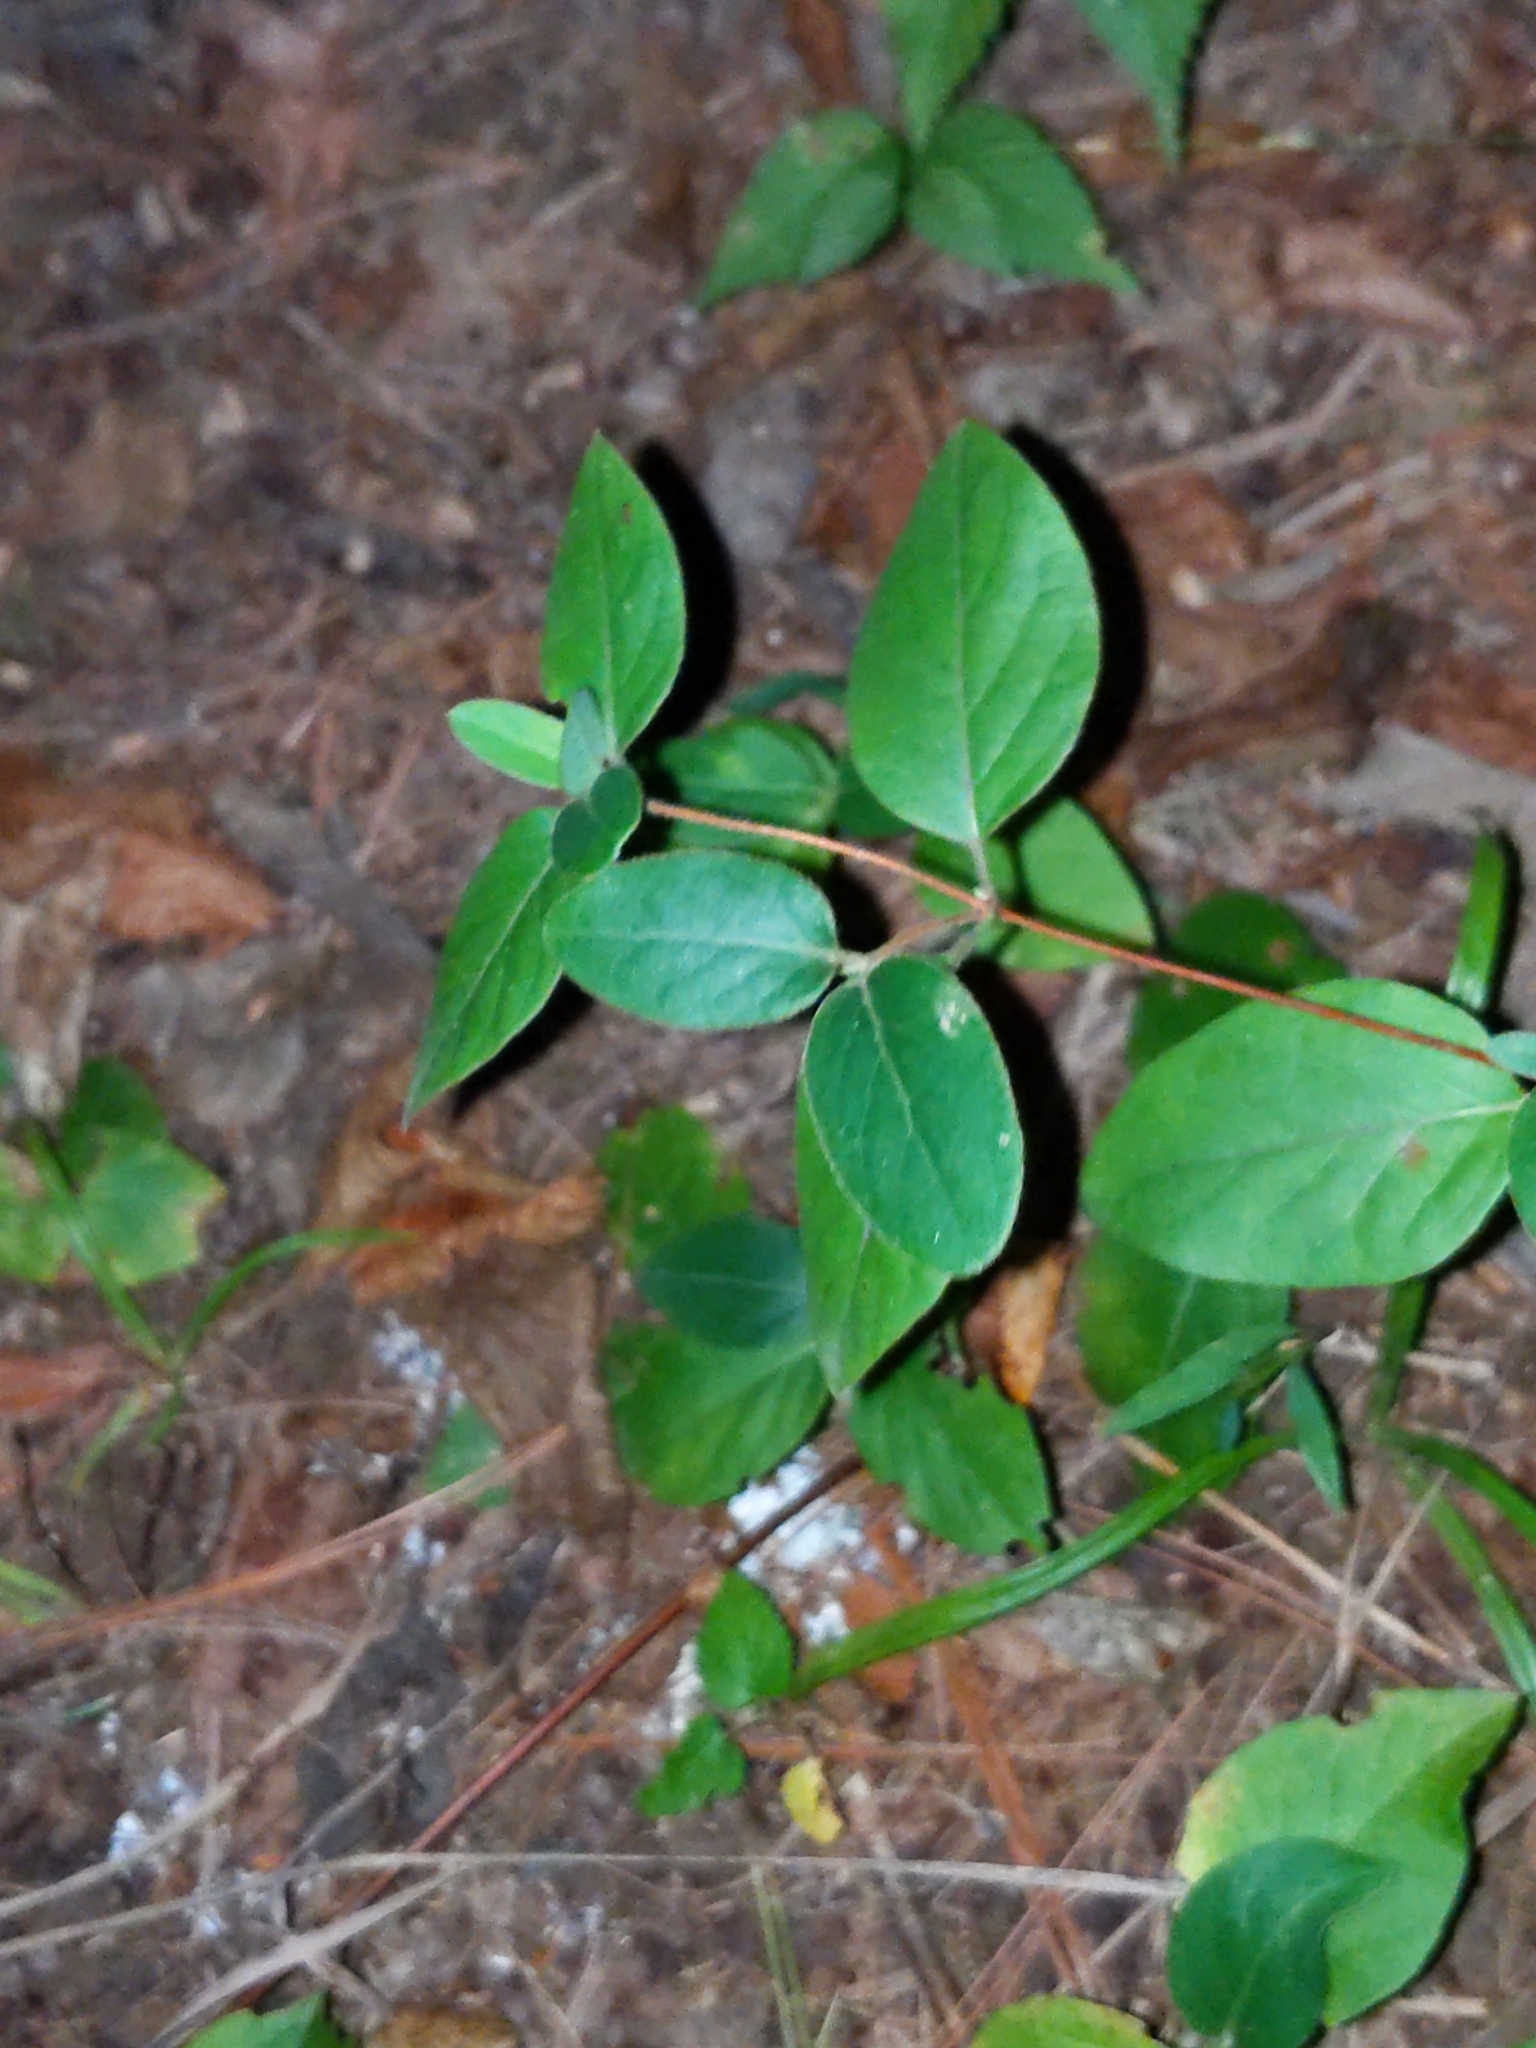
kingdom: Plantae
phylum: Tracheophyta
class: Magnoliopsida
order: Dipsacales
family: Caprifoliaceae
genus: Lonicera
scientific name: Lonicera japonica
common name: Japanese honeysuckle
